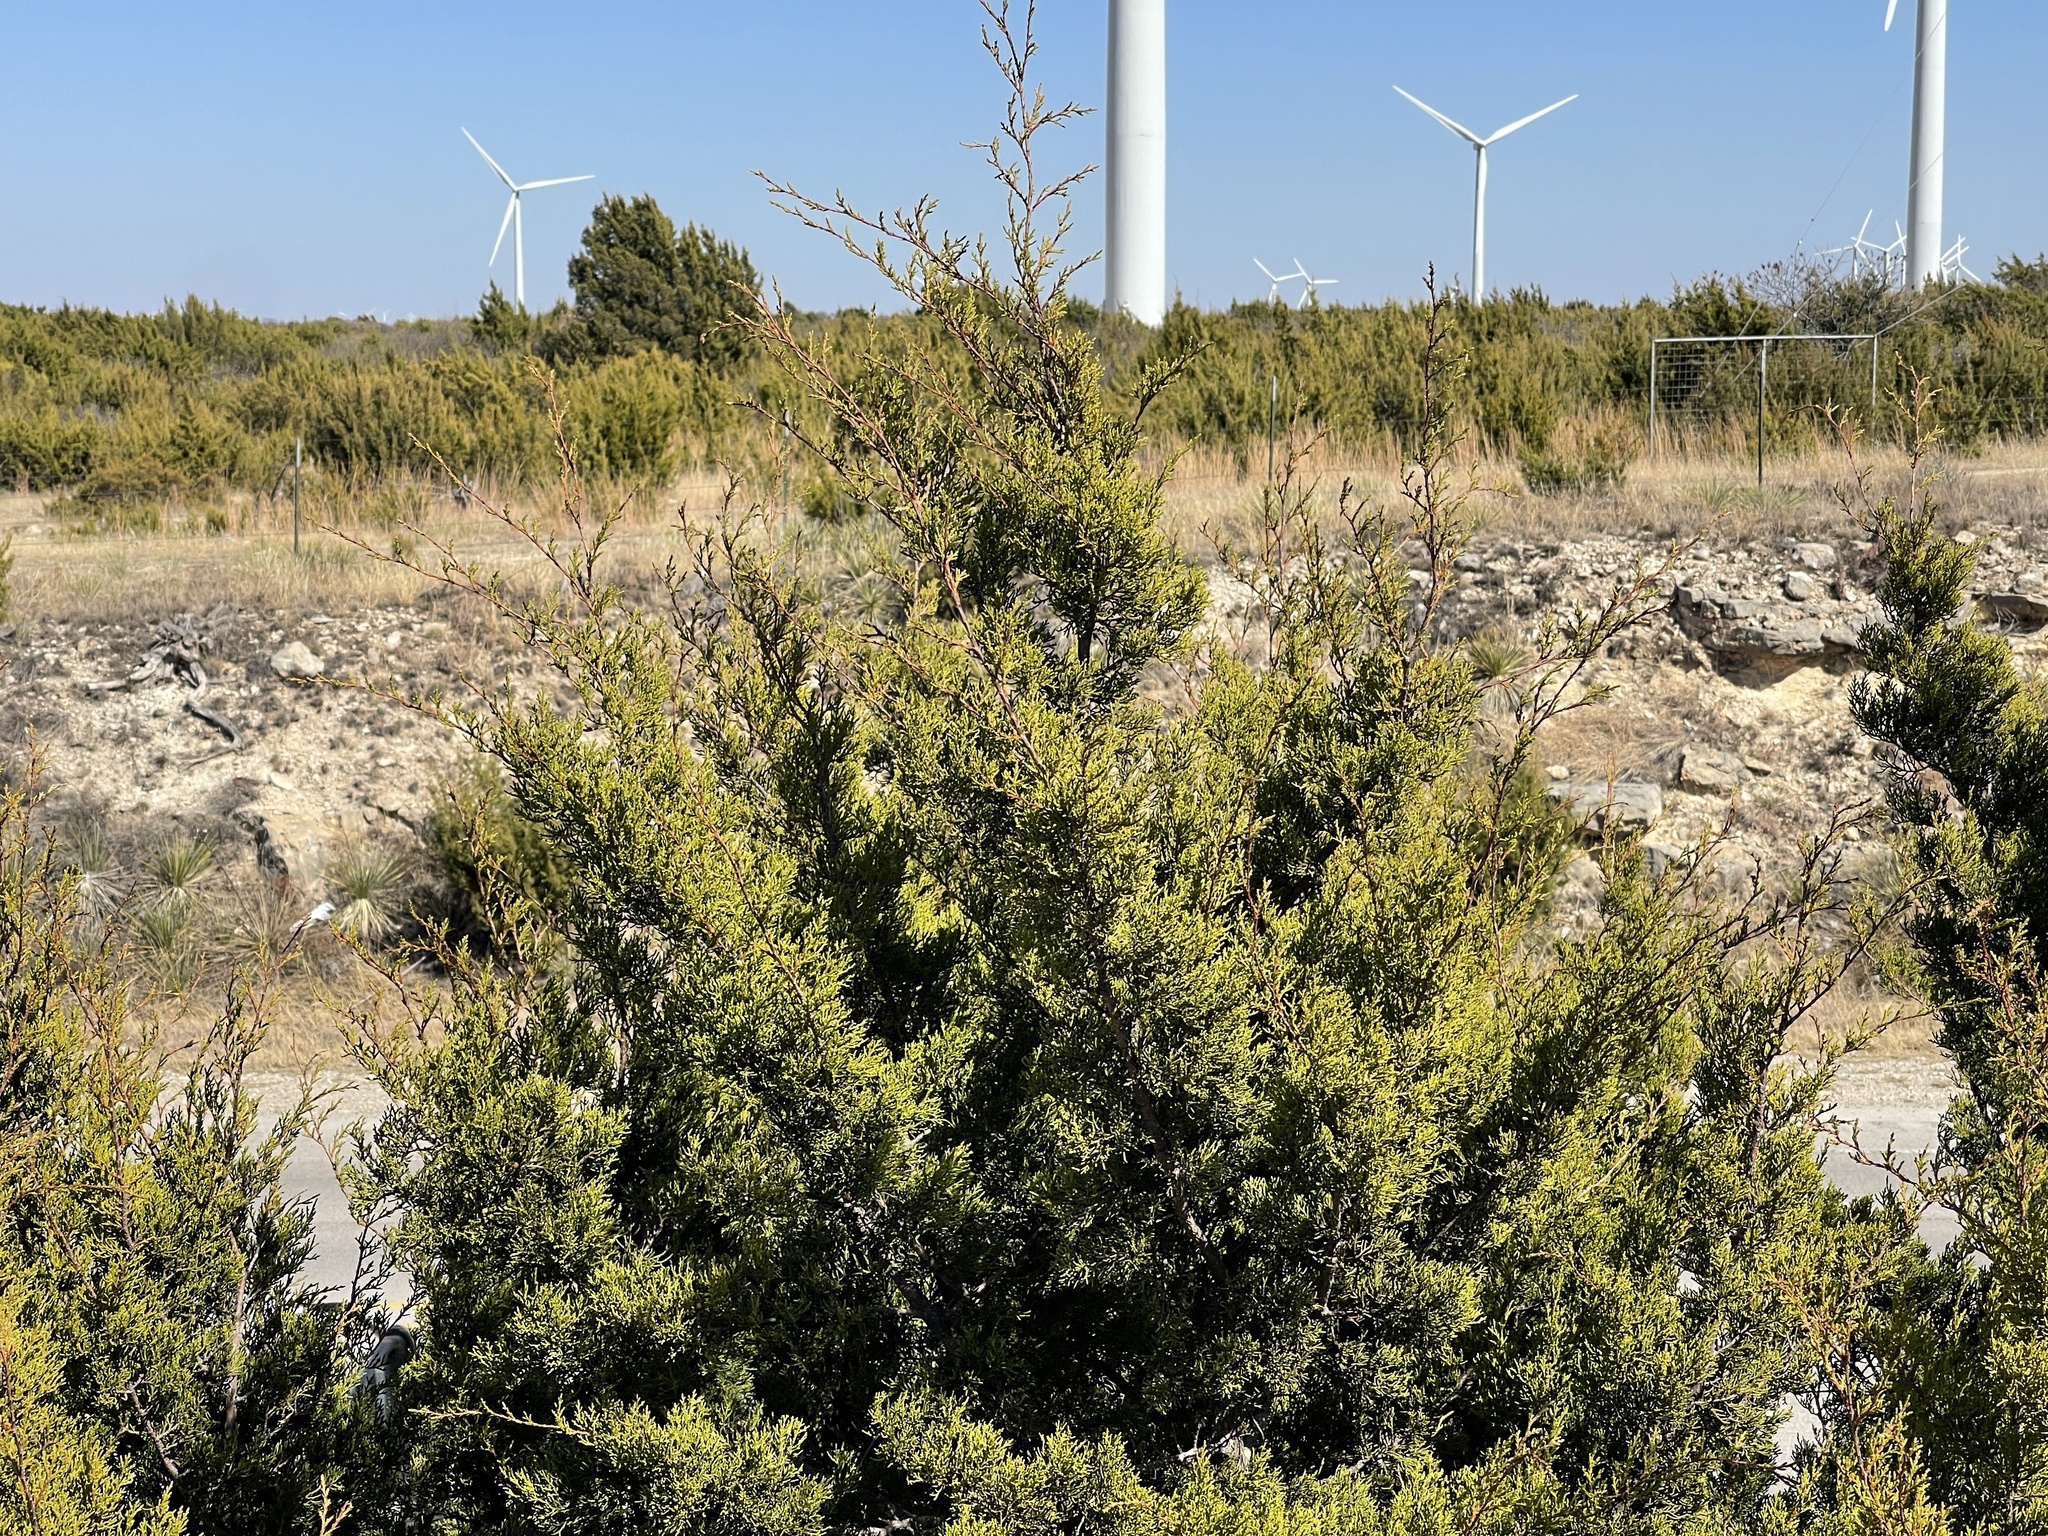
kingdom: Plantae
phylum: Tracheophyta
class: Pinopsida
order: Pinales
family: Cupressaceae
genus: Juniperus
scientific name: Juniperus ashei
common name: Mexican juniper
